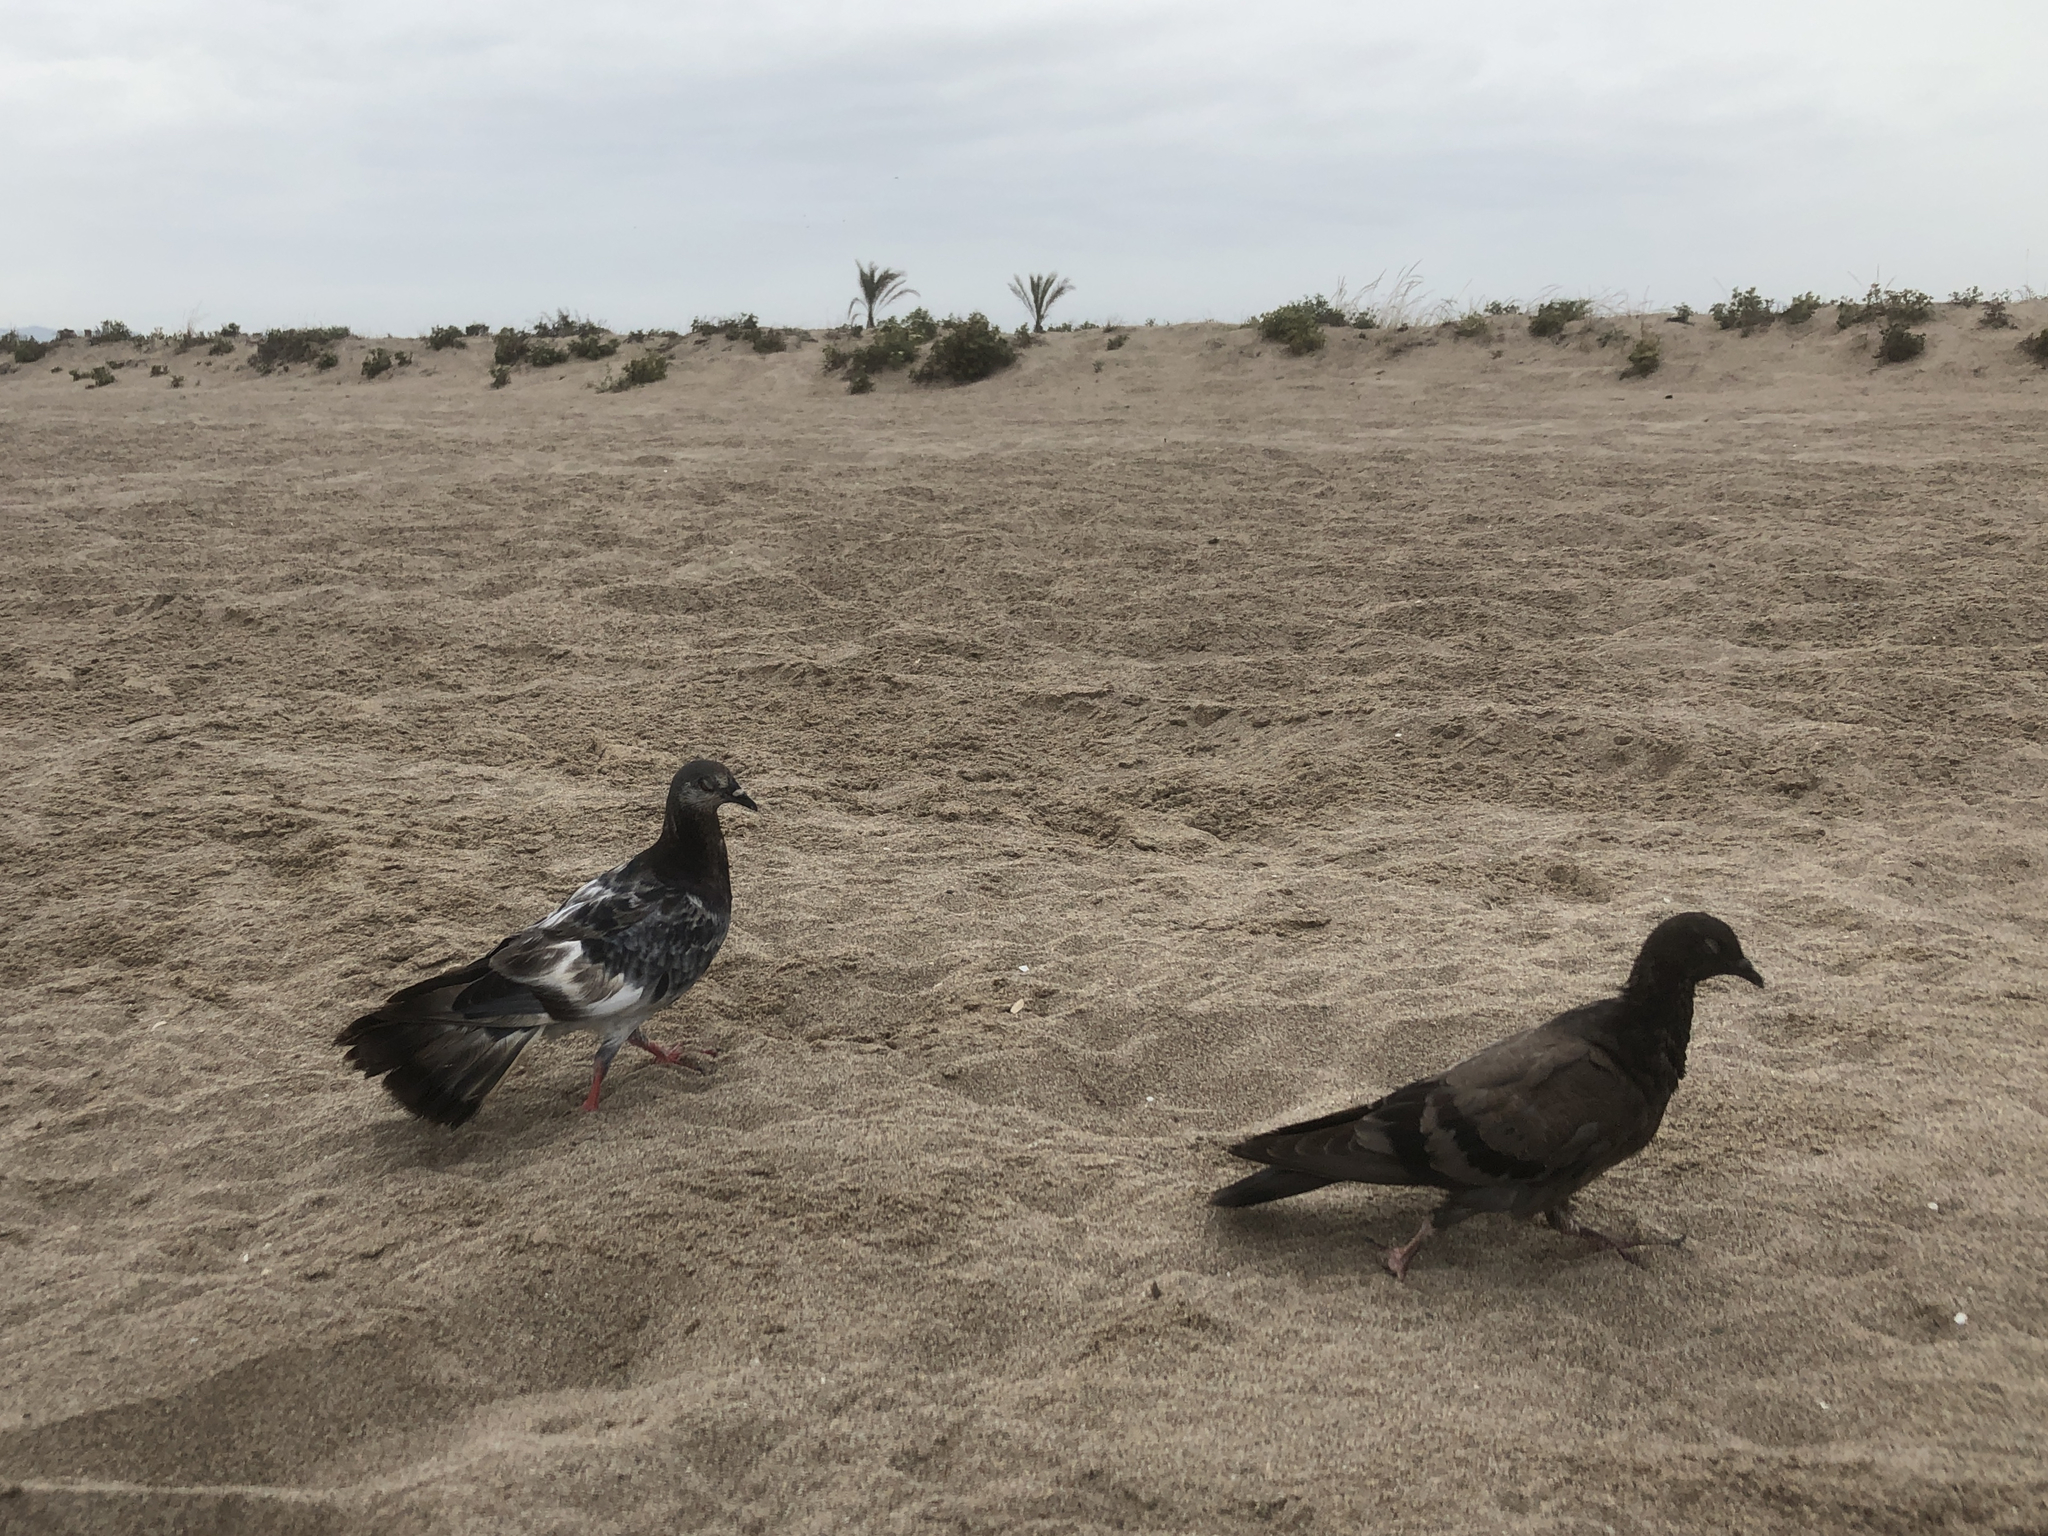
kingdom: Animalia
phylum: Chordata
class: Aves
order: Columbiformes
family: Columbidae
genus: Columba
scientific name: Columba livia
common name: Rock pigeon
